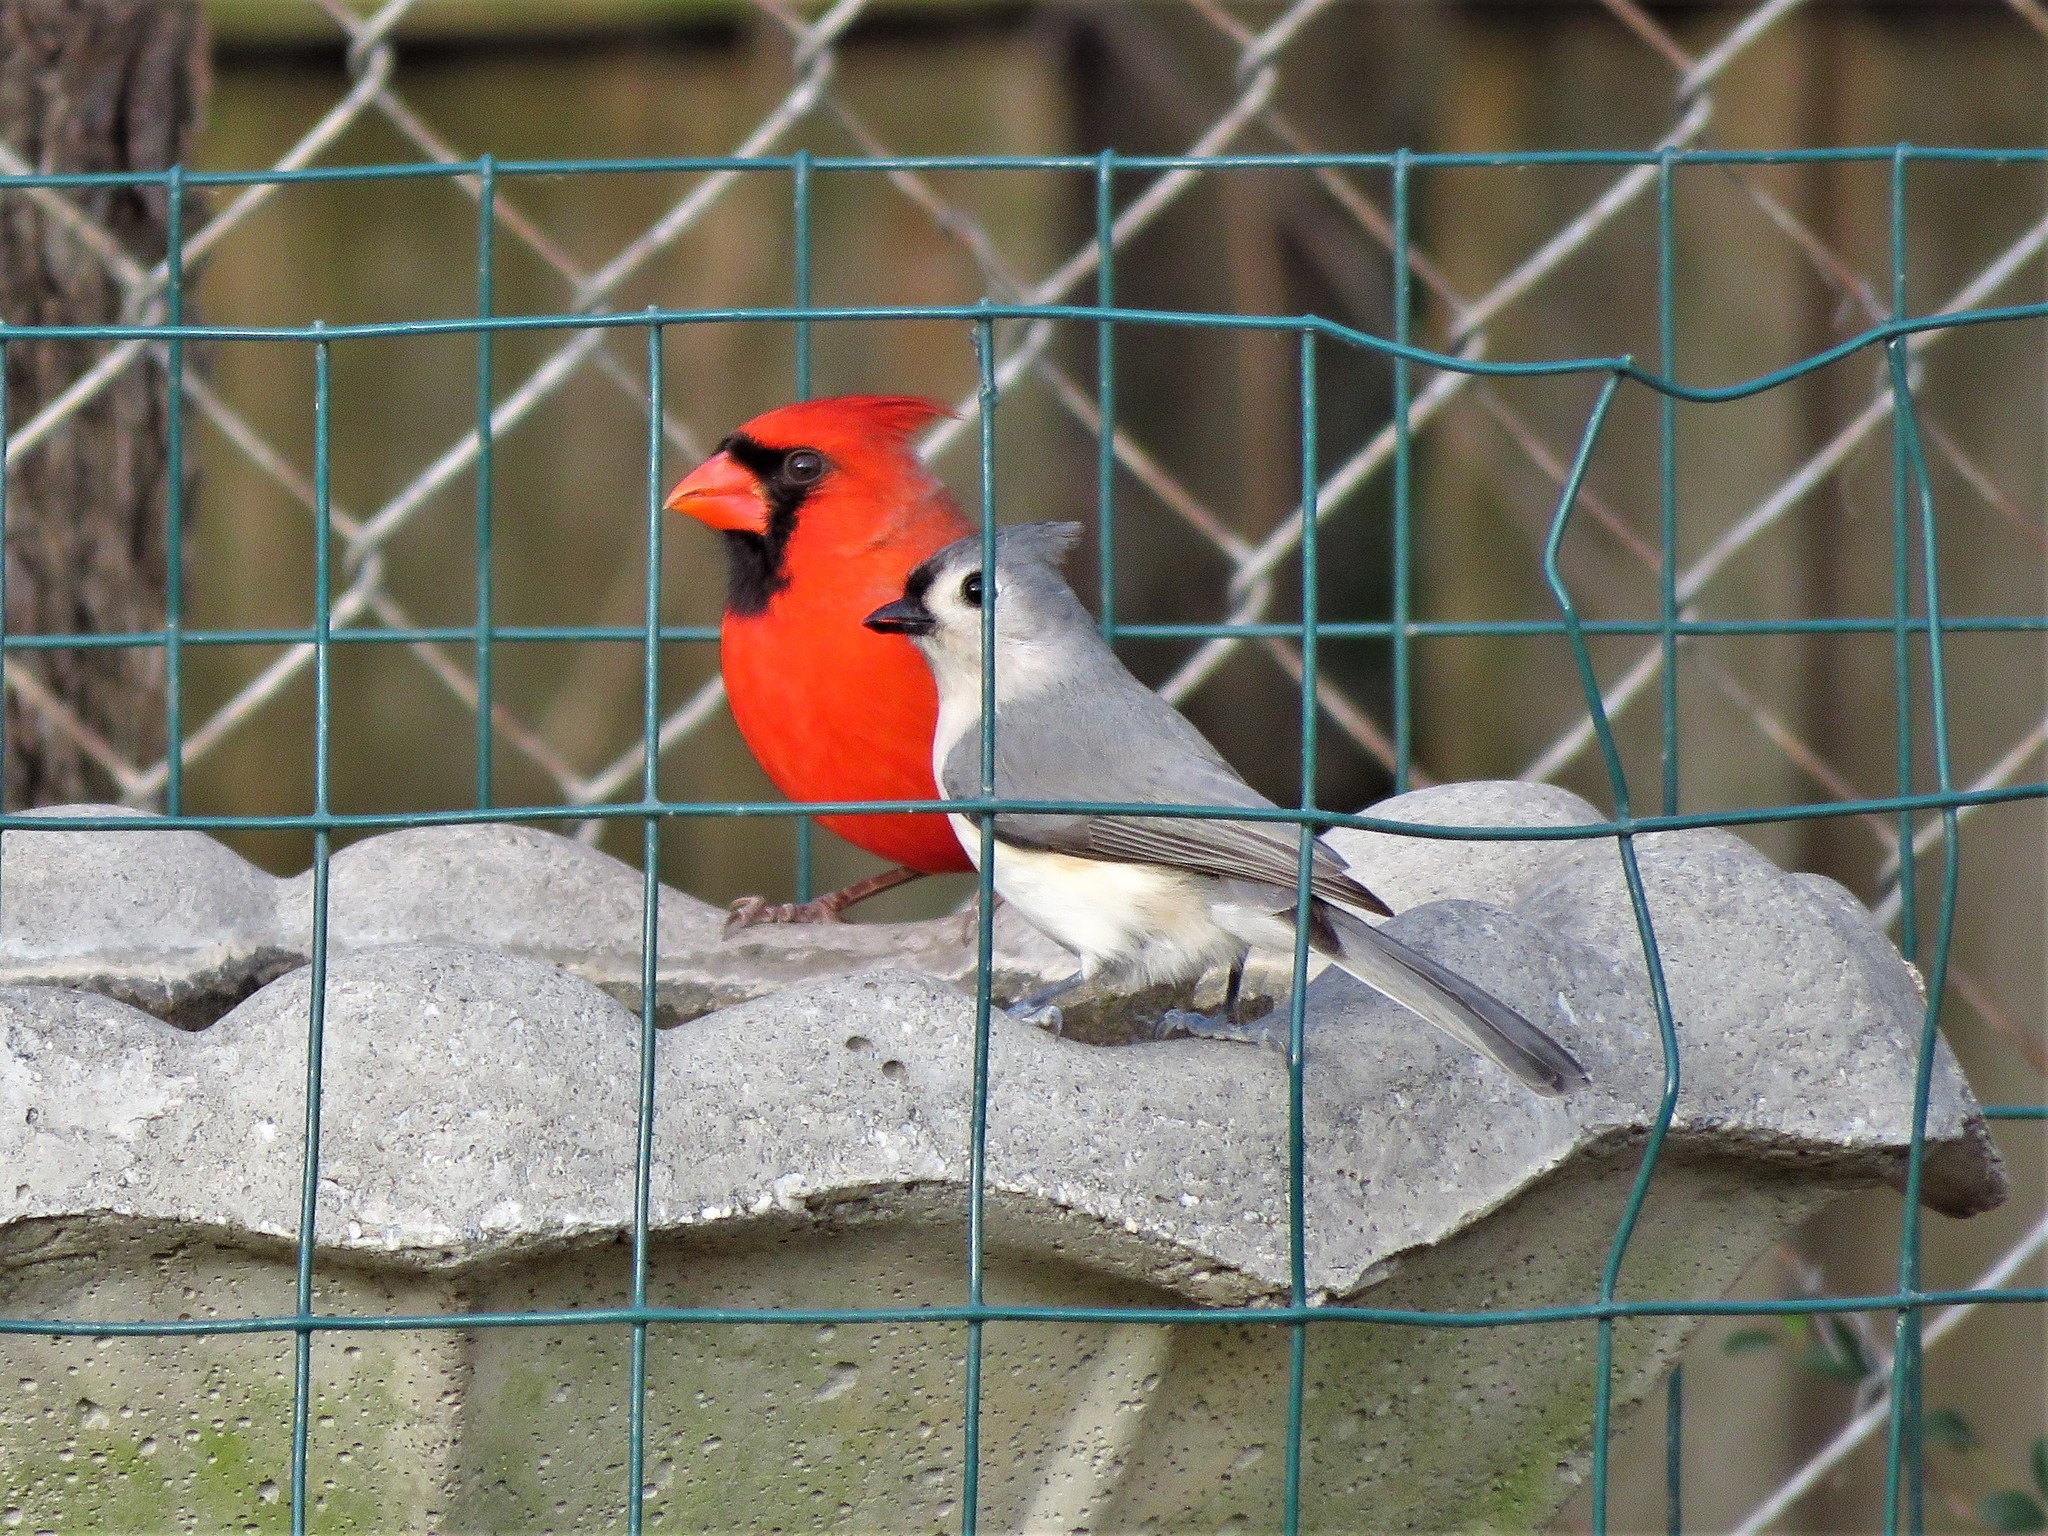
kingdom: Animalia
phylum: Chordata
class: Aves
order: Passeriformes
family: Paridae
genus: Baeolophus
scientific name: Baeolophus bicolor
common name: Tufted titmouse
